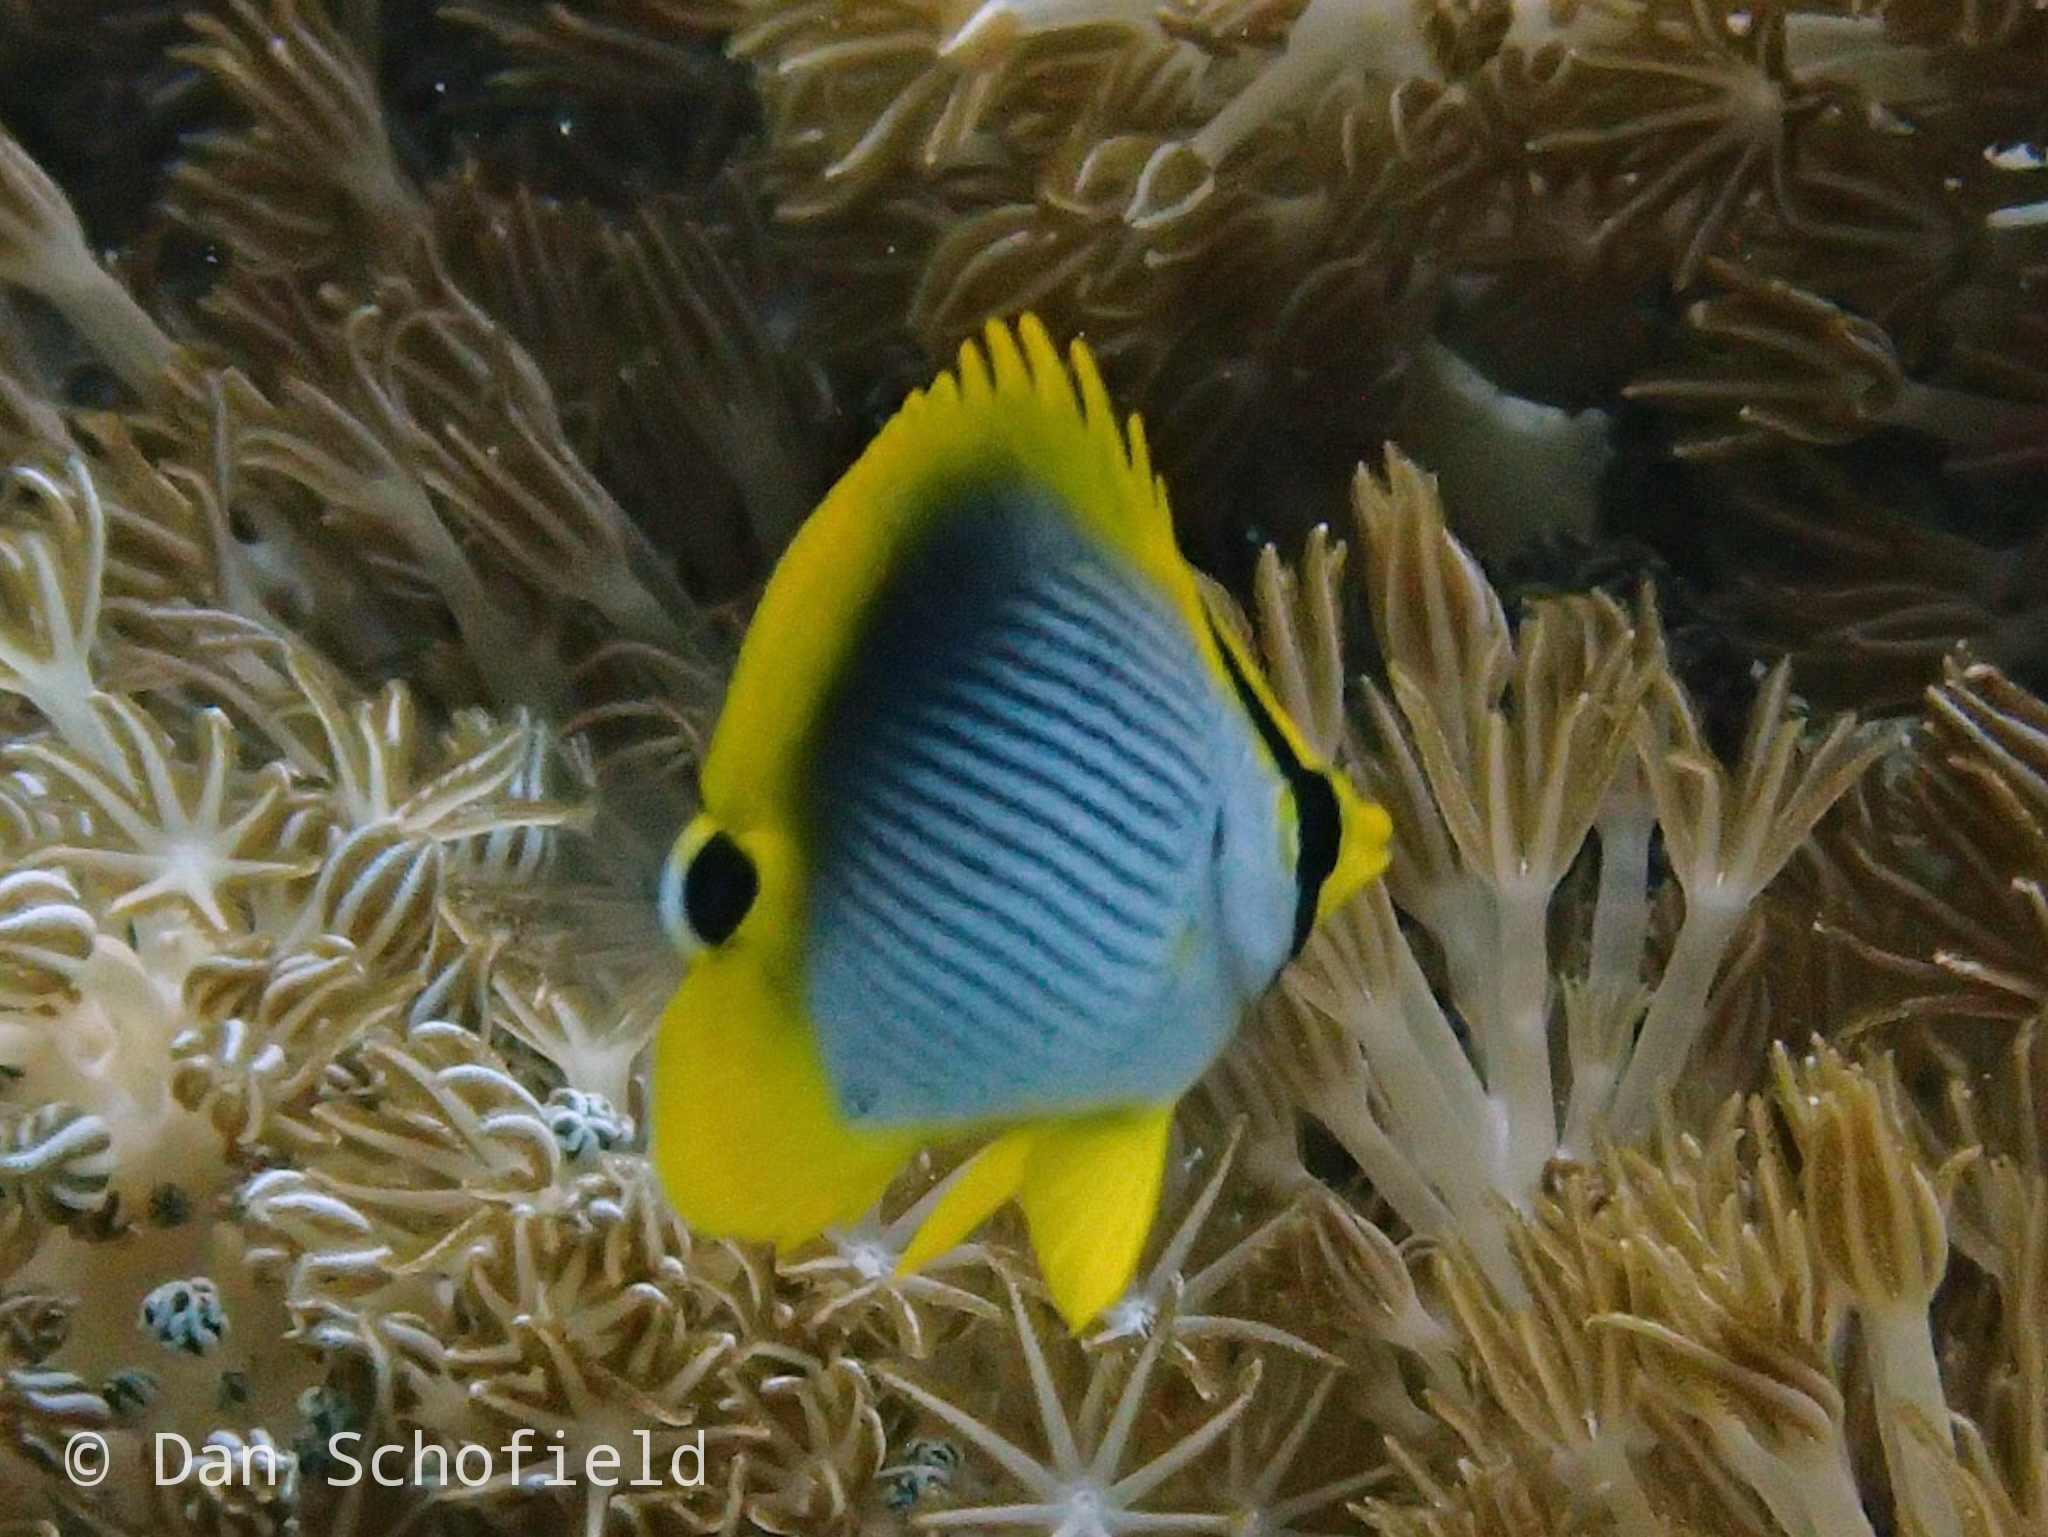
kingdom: Animalia
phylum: Chordata
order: Perciformes
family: Chaetodontidae
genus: Chaetodon
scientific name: Chaetodon ocellicaudus
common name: Spot-tail butterflyfish
